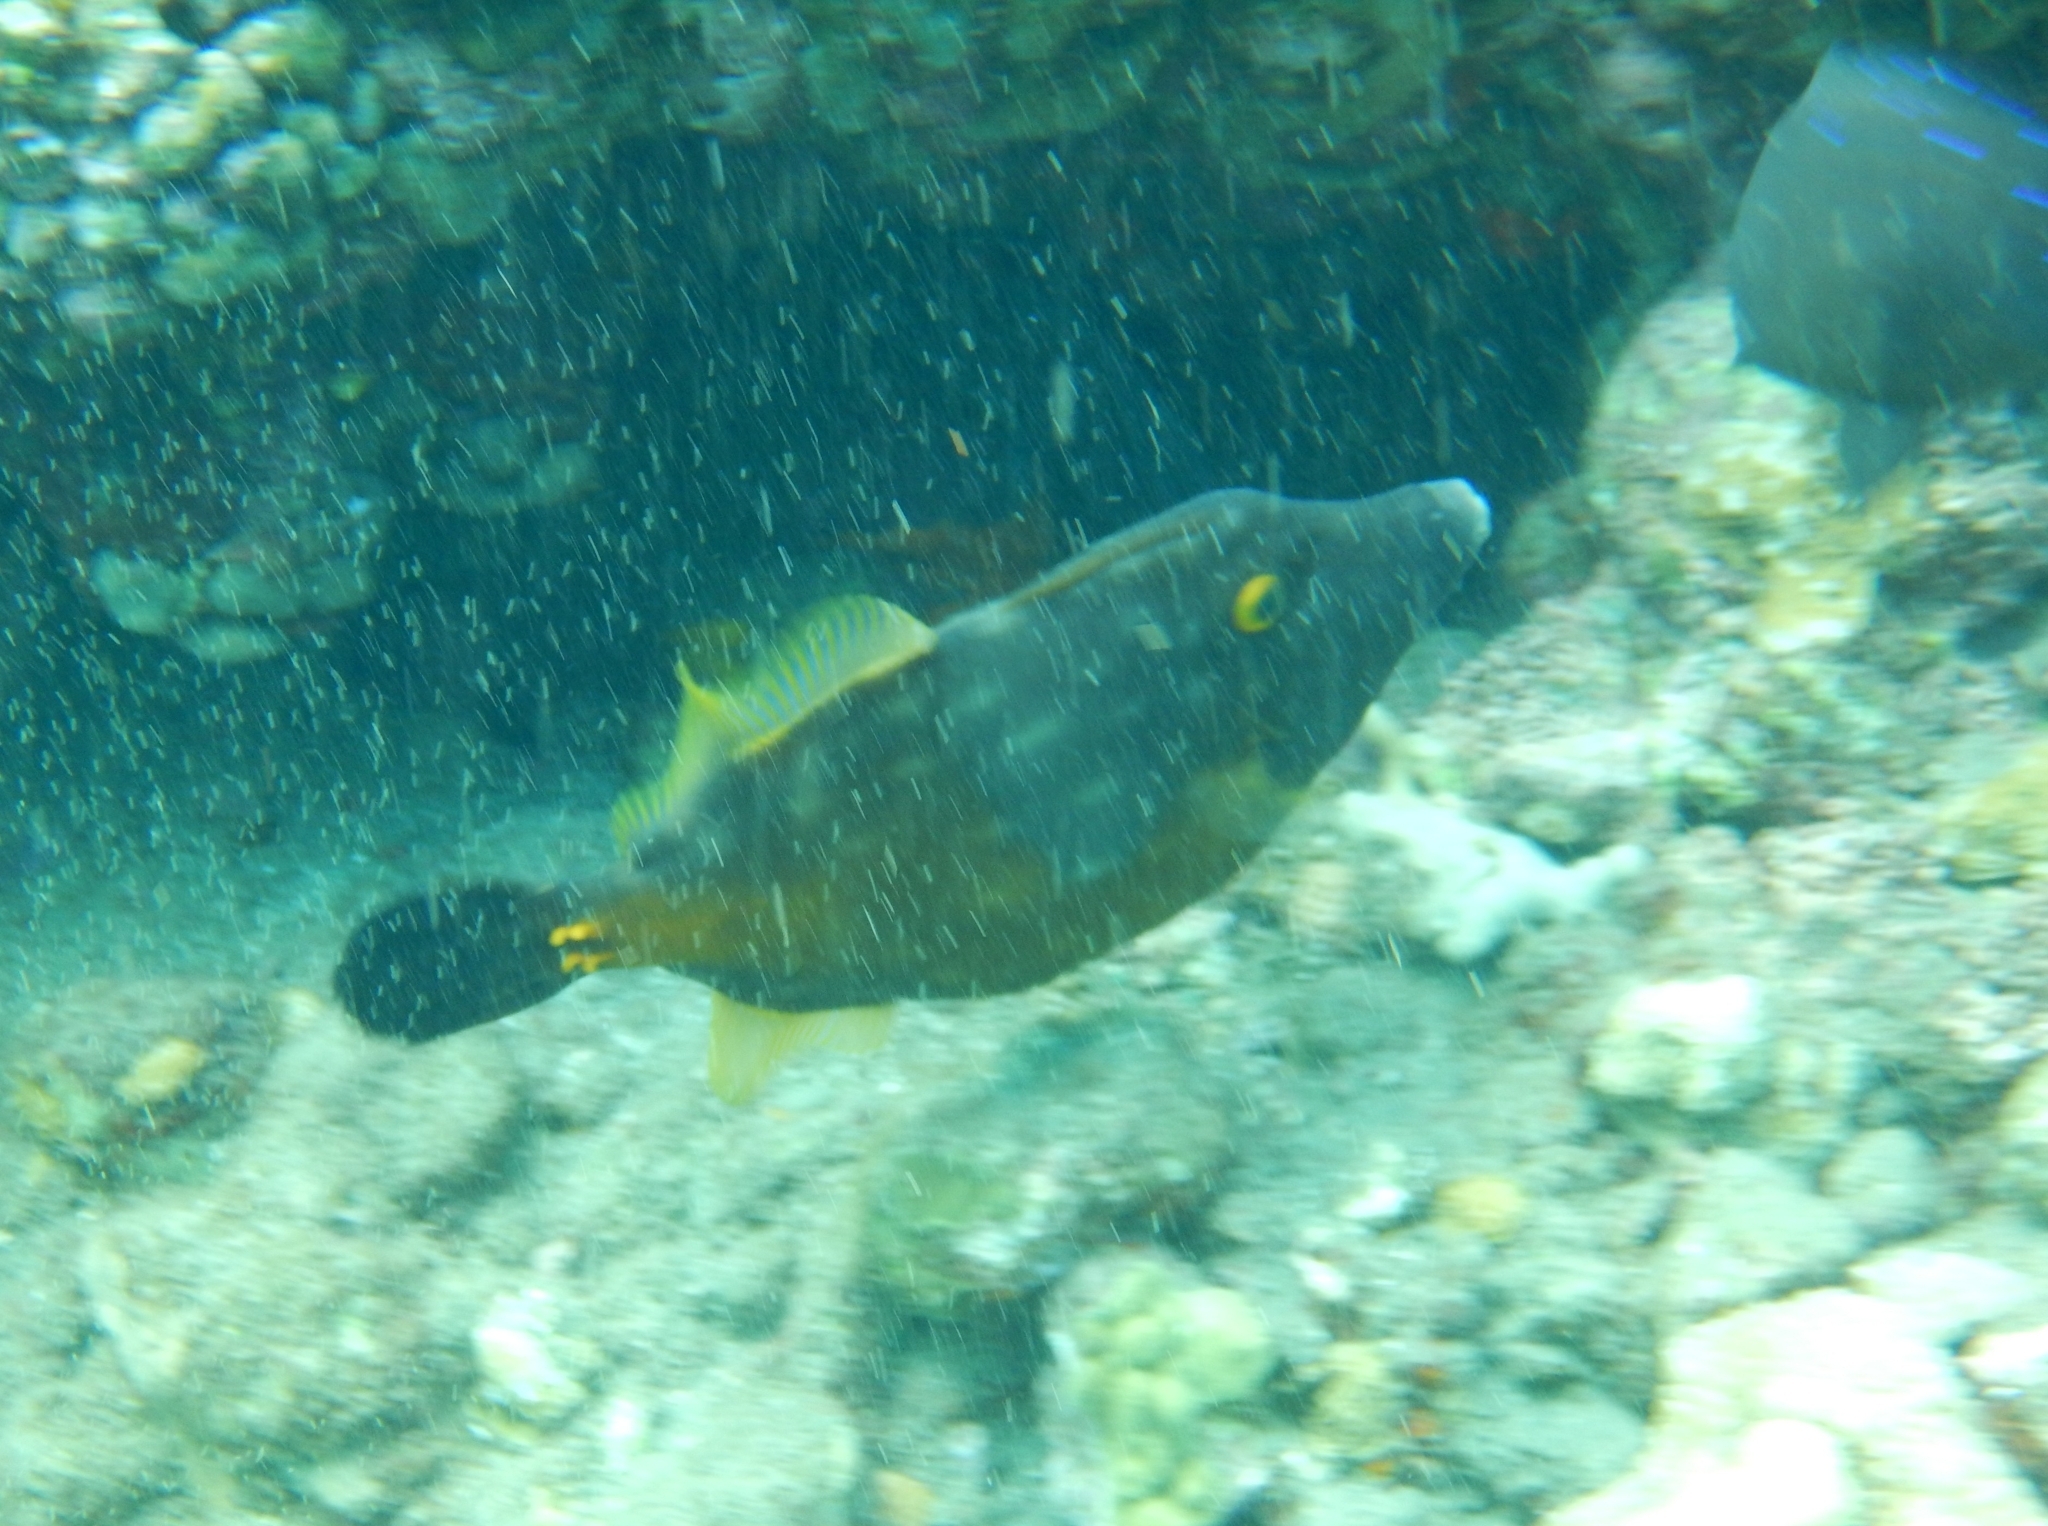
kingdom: Animalia
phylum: Chordata
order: Tetraodontiformes
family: Monacanthidae
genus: Cantherhines
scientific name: Cantherhines macrocerus
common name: Whitespotted filefish
